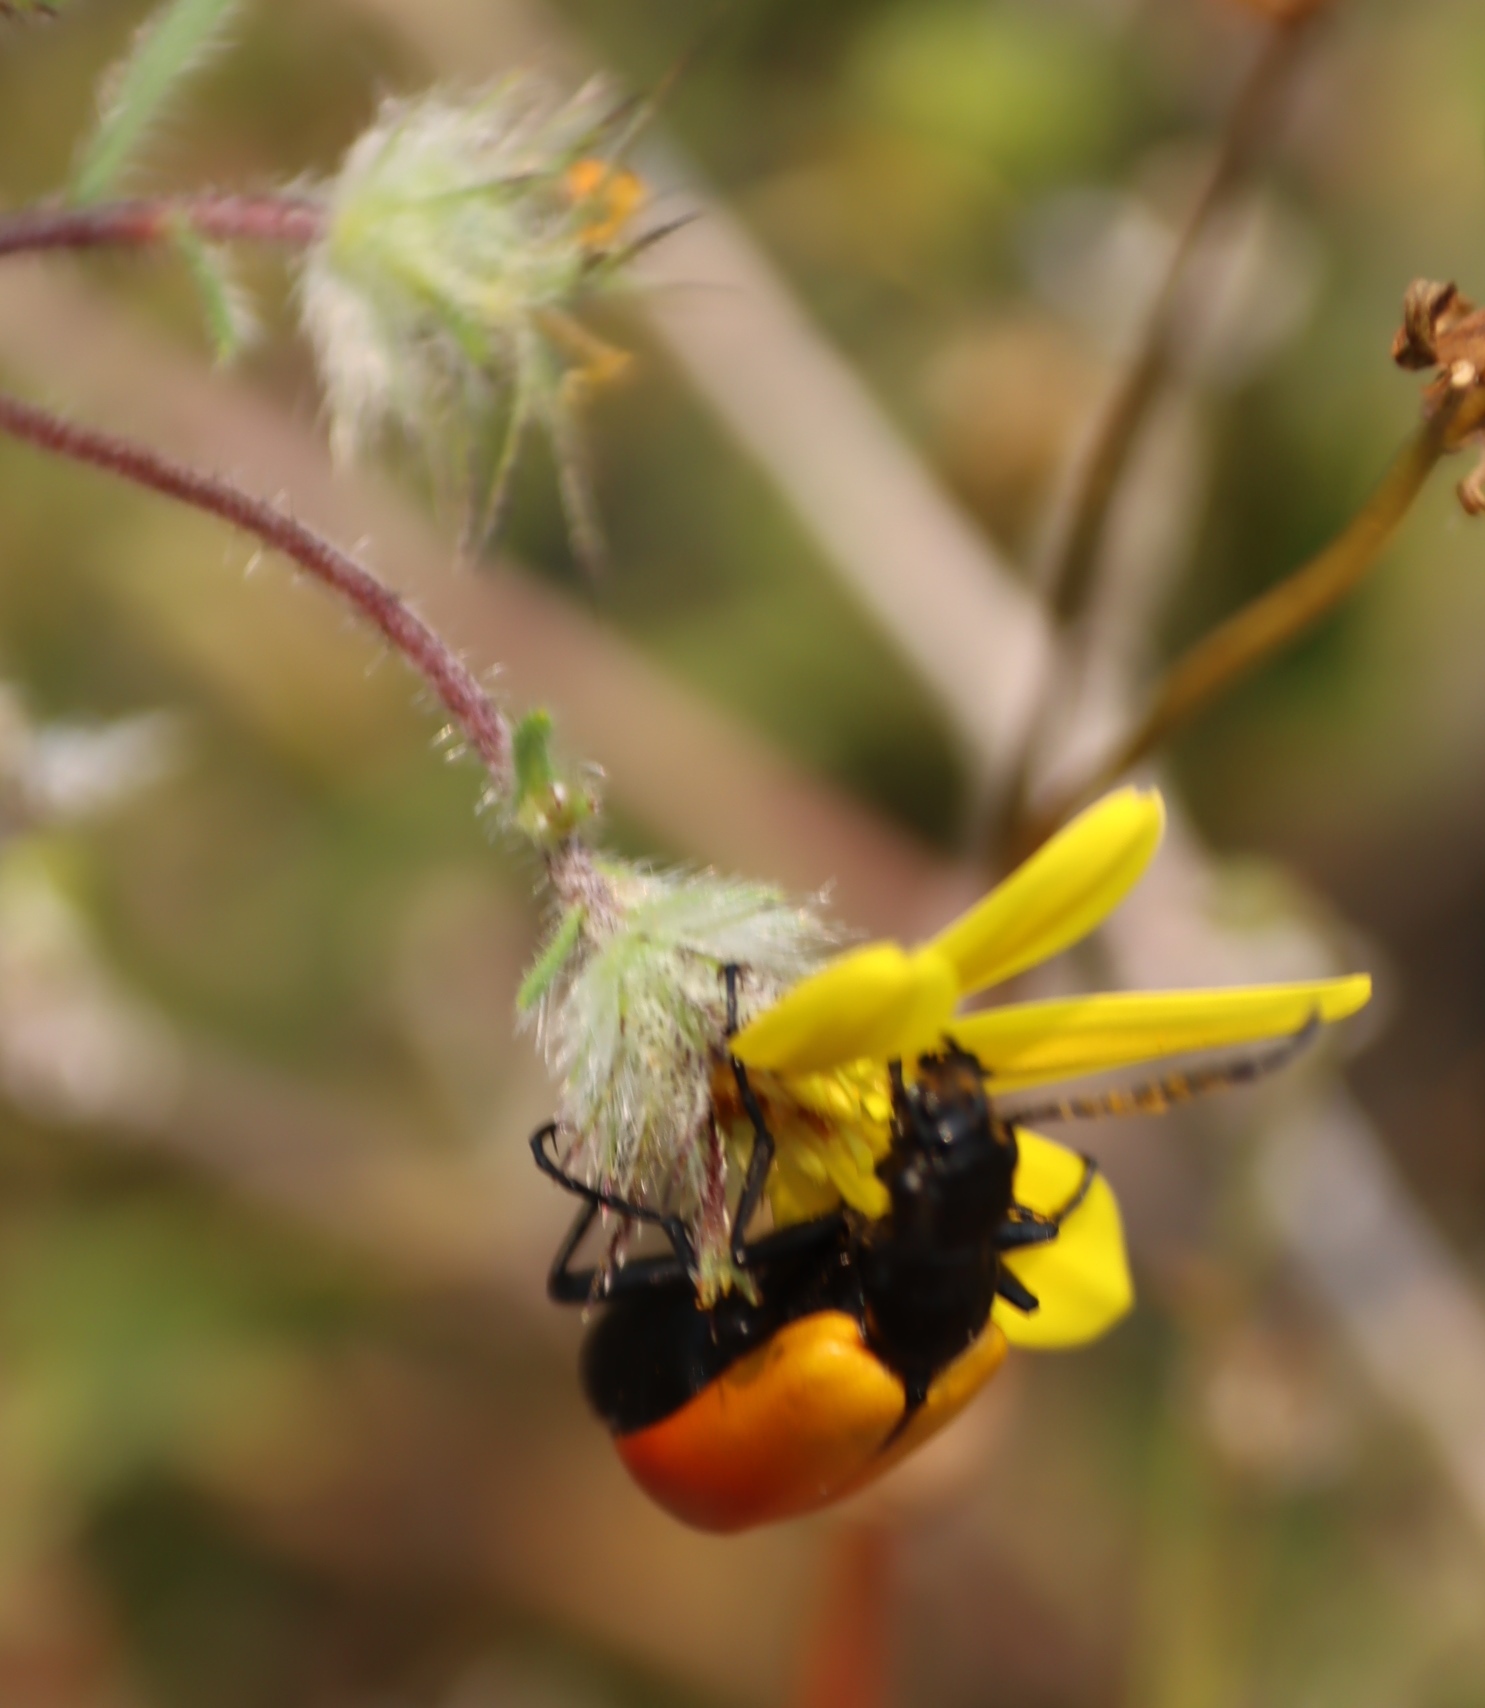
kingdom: Animalia
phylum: Arthropoda
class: Insecta
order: Coleoptera
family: Meloidae
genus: Prolytta
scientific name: Prolytta coriacea
